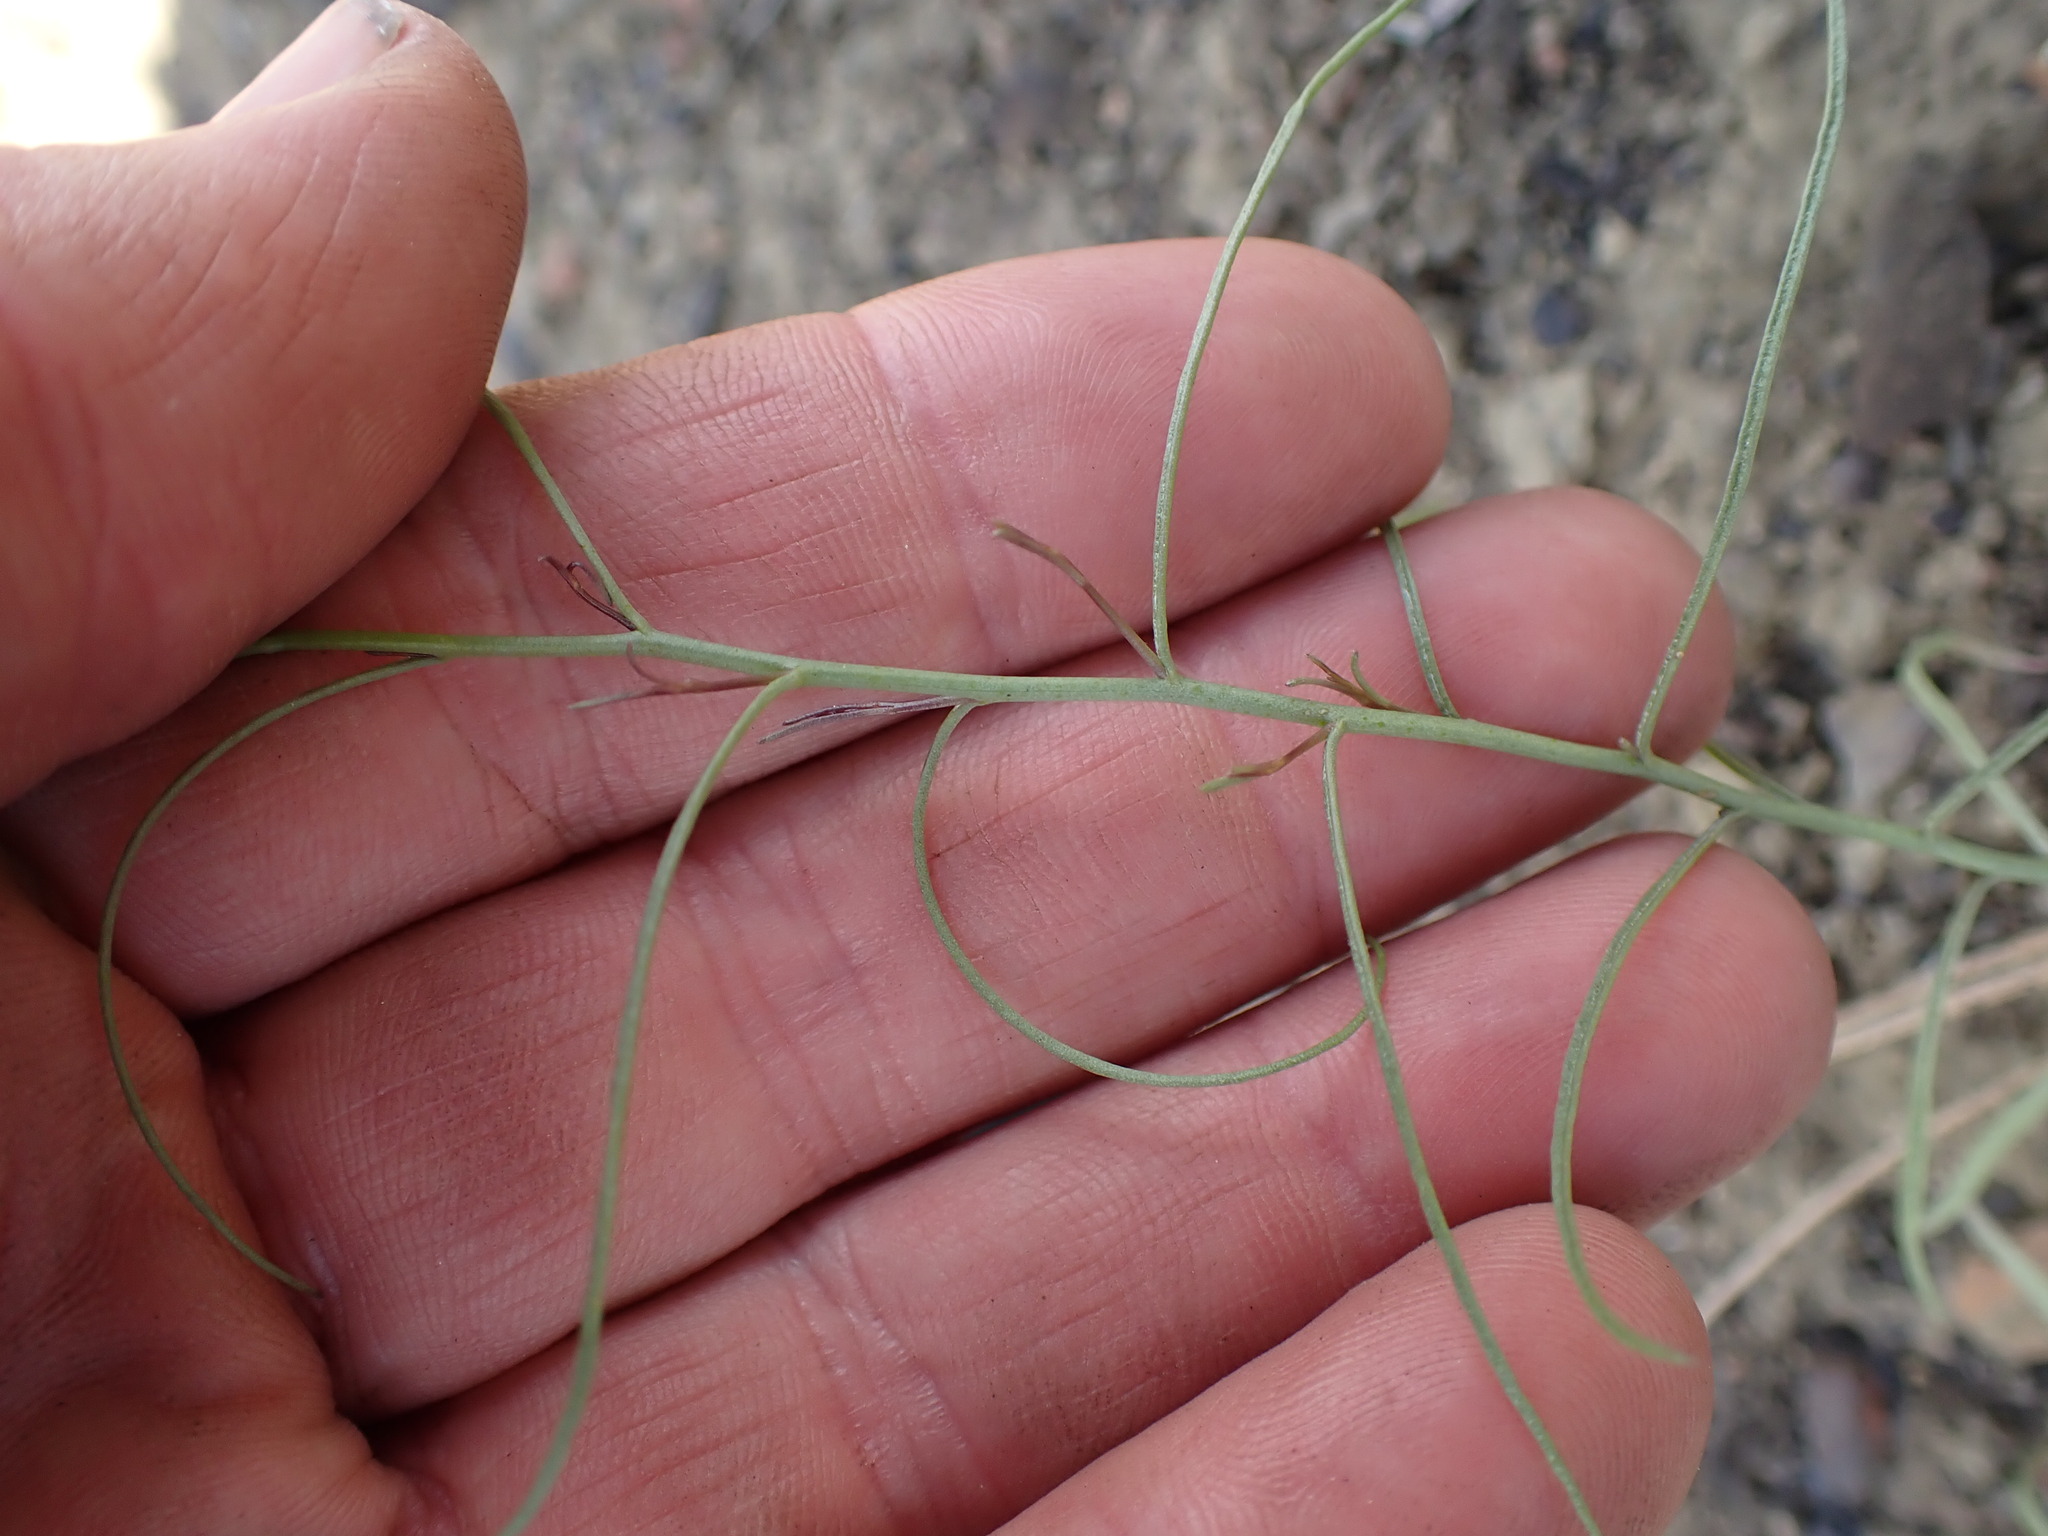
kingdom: Plantae
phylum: Tracheophyta
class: Magnoliopsida
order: Asterales
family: Asteraceae
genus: Stephanomeria
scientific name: Stephanomeria tenuifolia
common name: Slender wirelettuce
